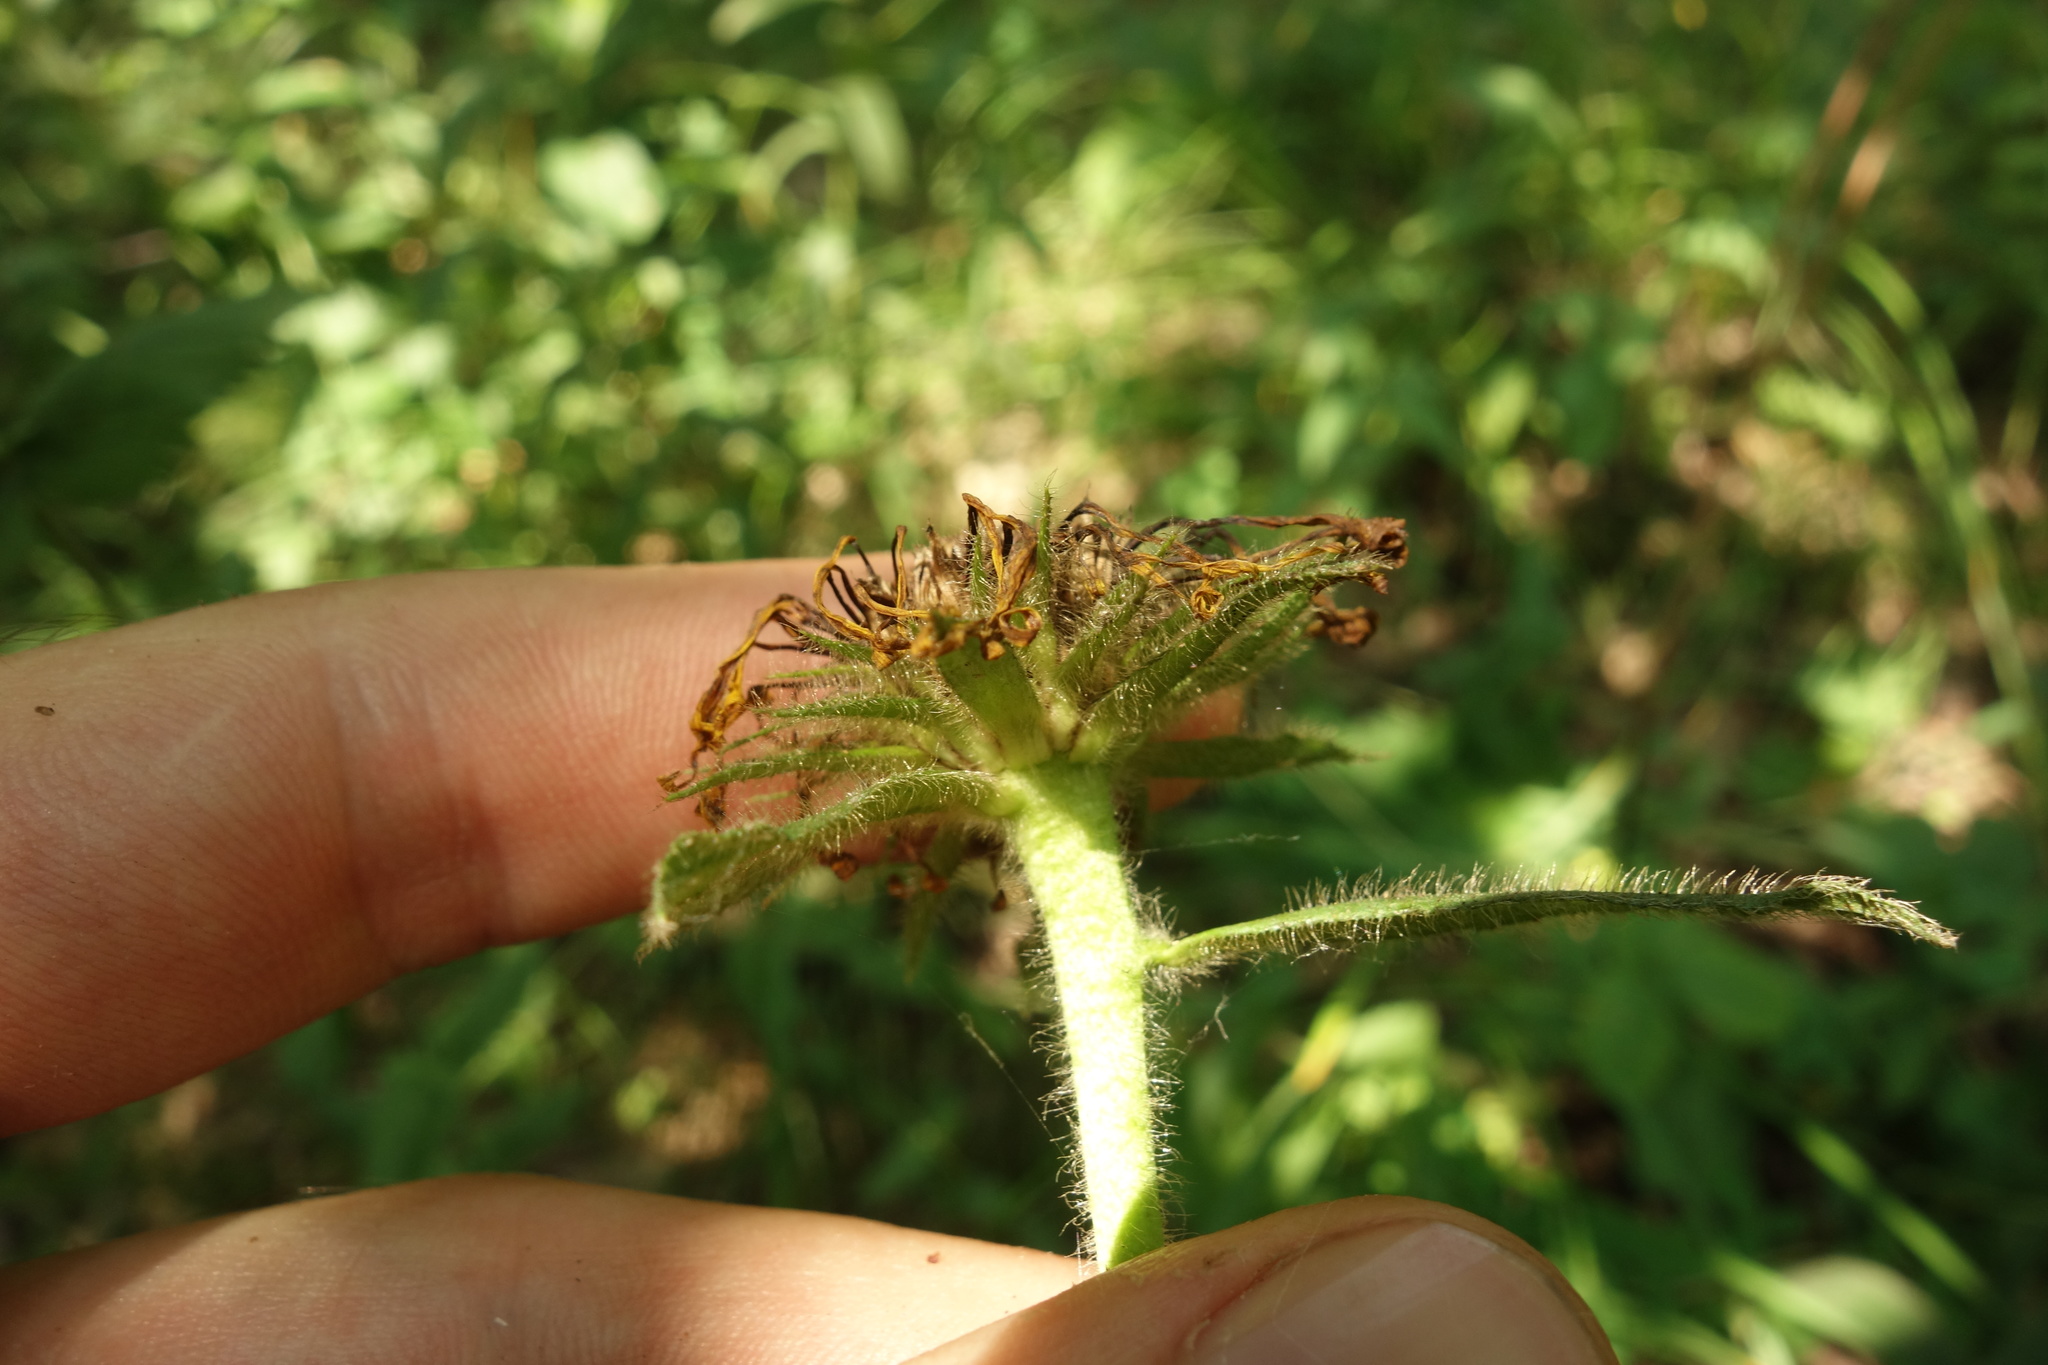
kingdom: Plantae
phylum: Tracheophyta
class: Magnoliopsida
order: Asterales
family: Asteraceae
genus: Pentanema
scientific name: Pentanema hirtum
